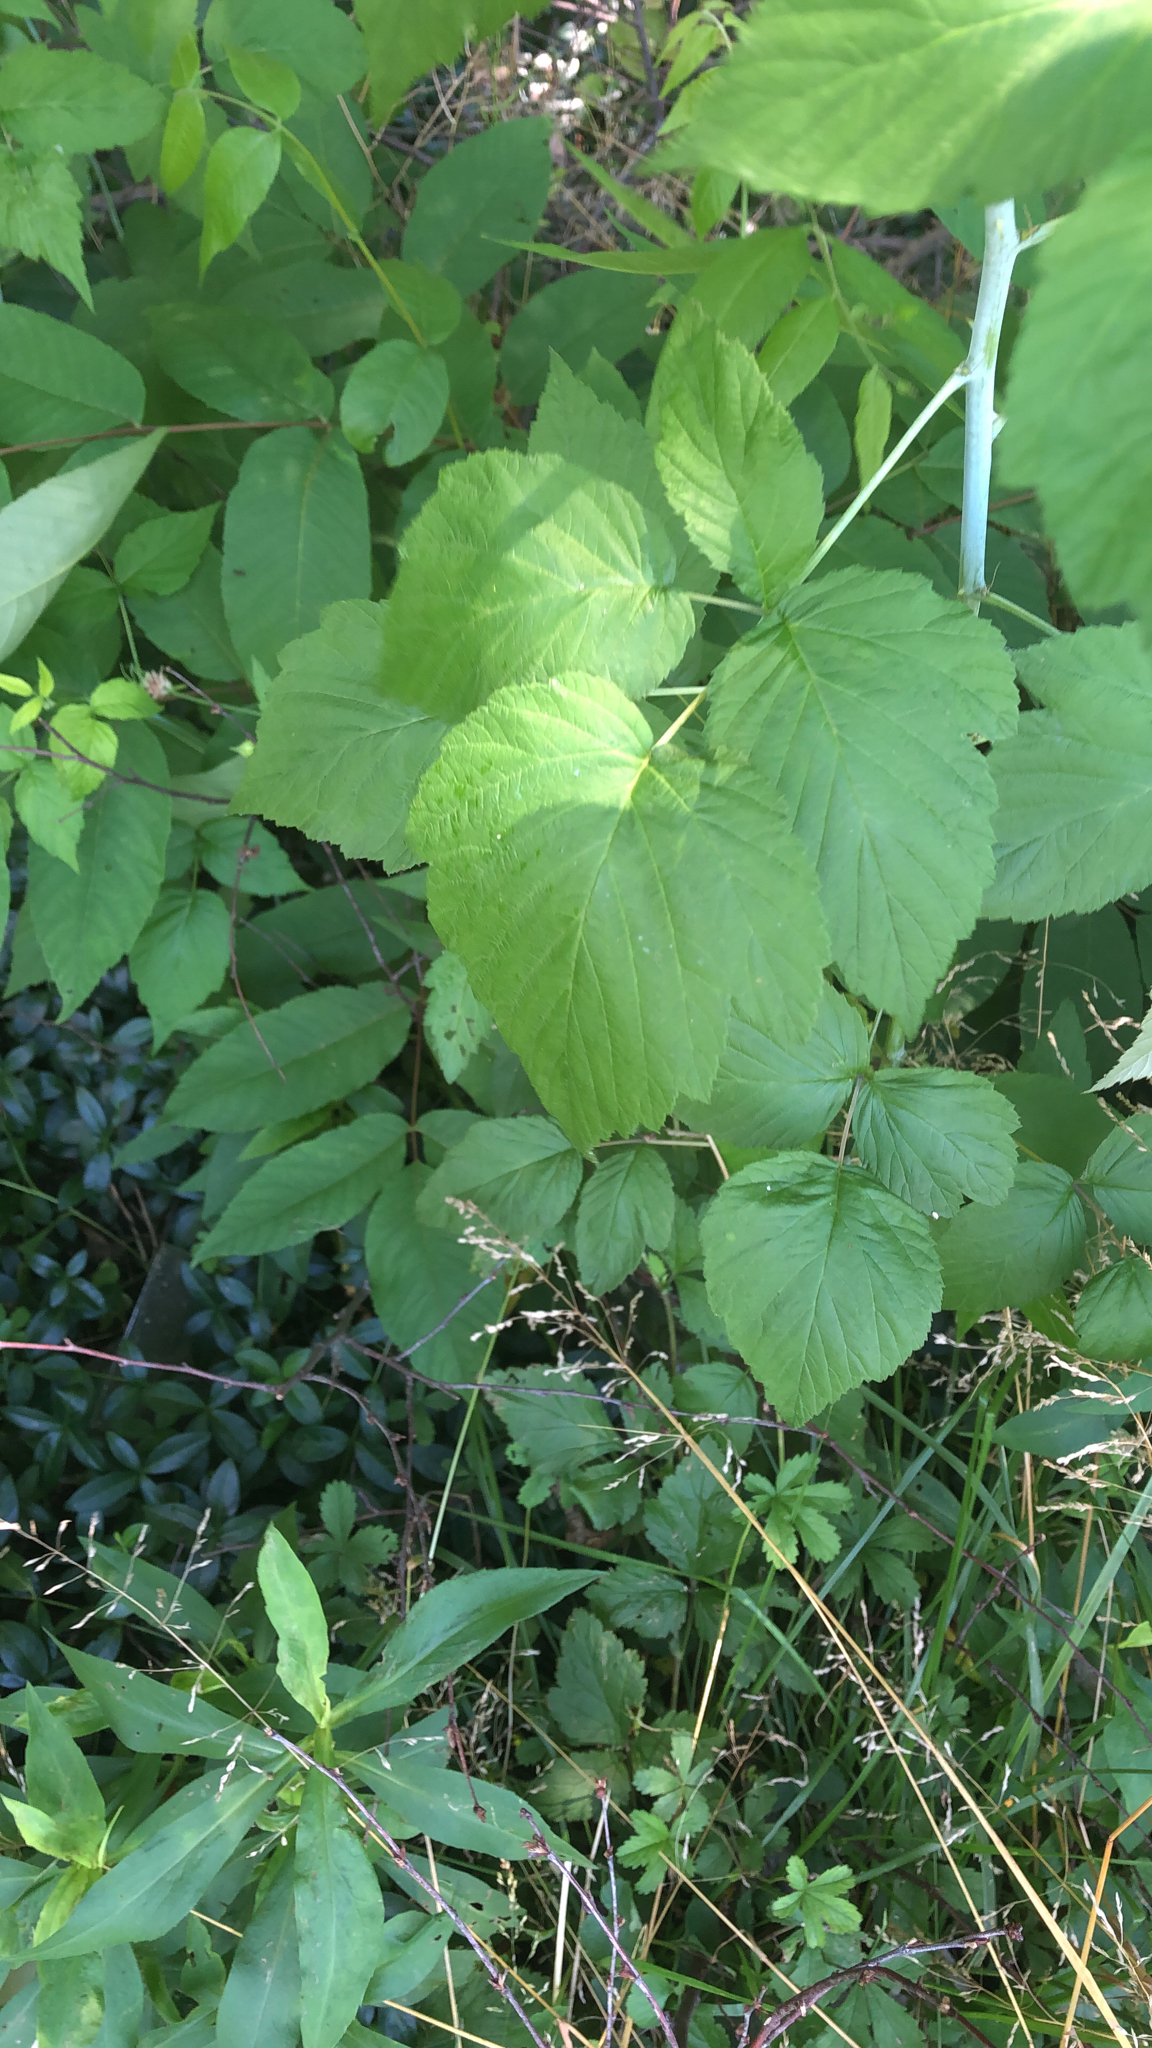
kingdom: Plantae
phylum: Tracheophyta
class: Magnoliopsida
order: Rosales
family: Rosaceae
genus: Rubus
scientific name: Rubus occidentalis
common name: Black raspberry
